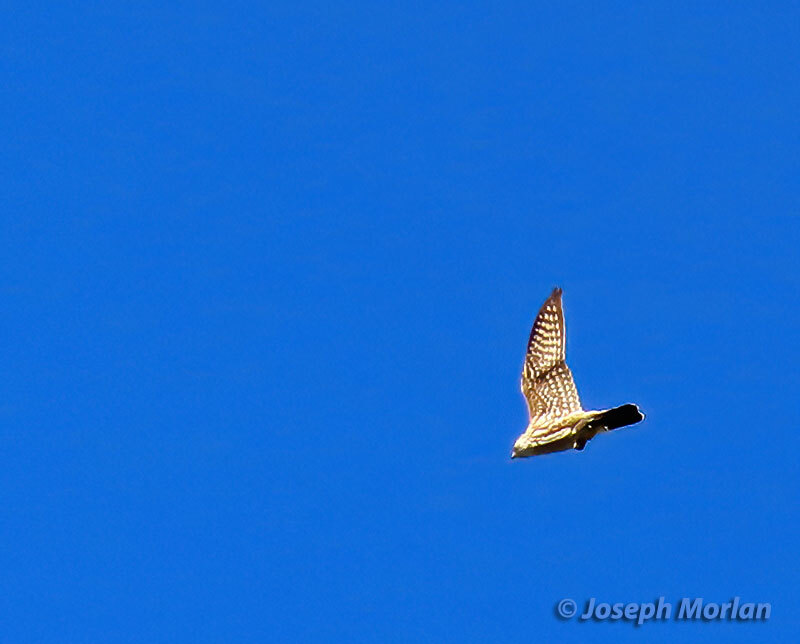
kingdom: Animalia
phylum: Chordata
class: Aves
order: Falconiformes
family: Falconidae
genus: Falco
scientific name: Falco columbarius
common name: Merlin
